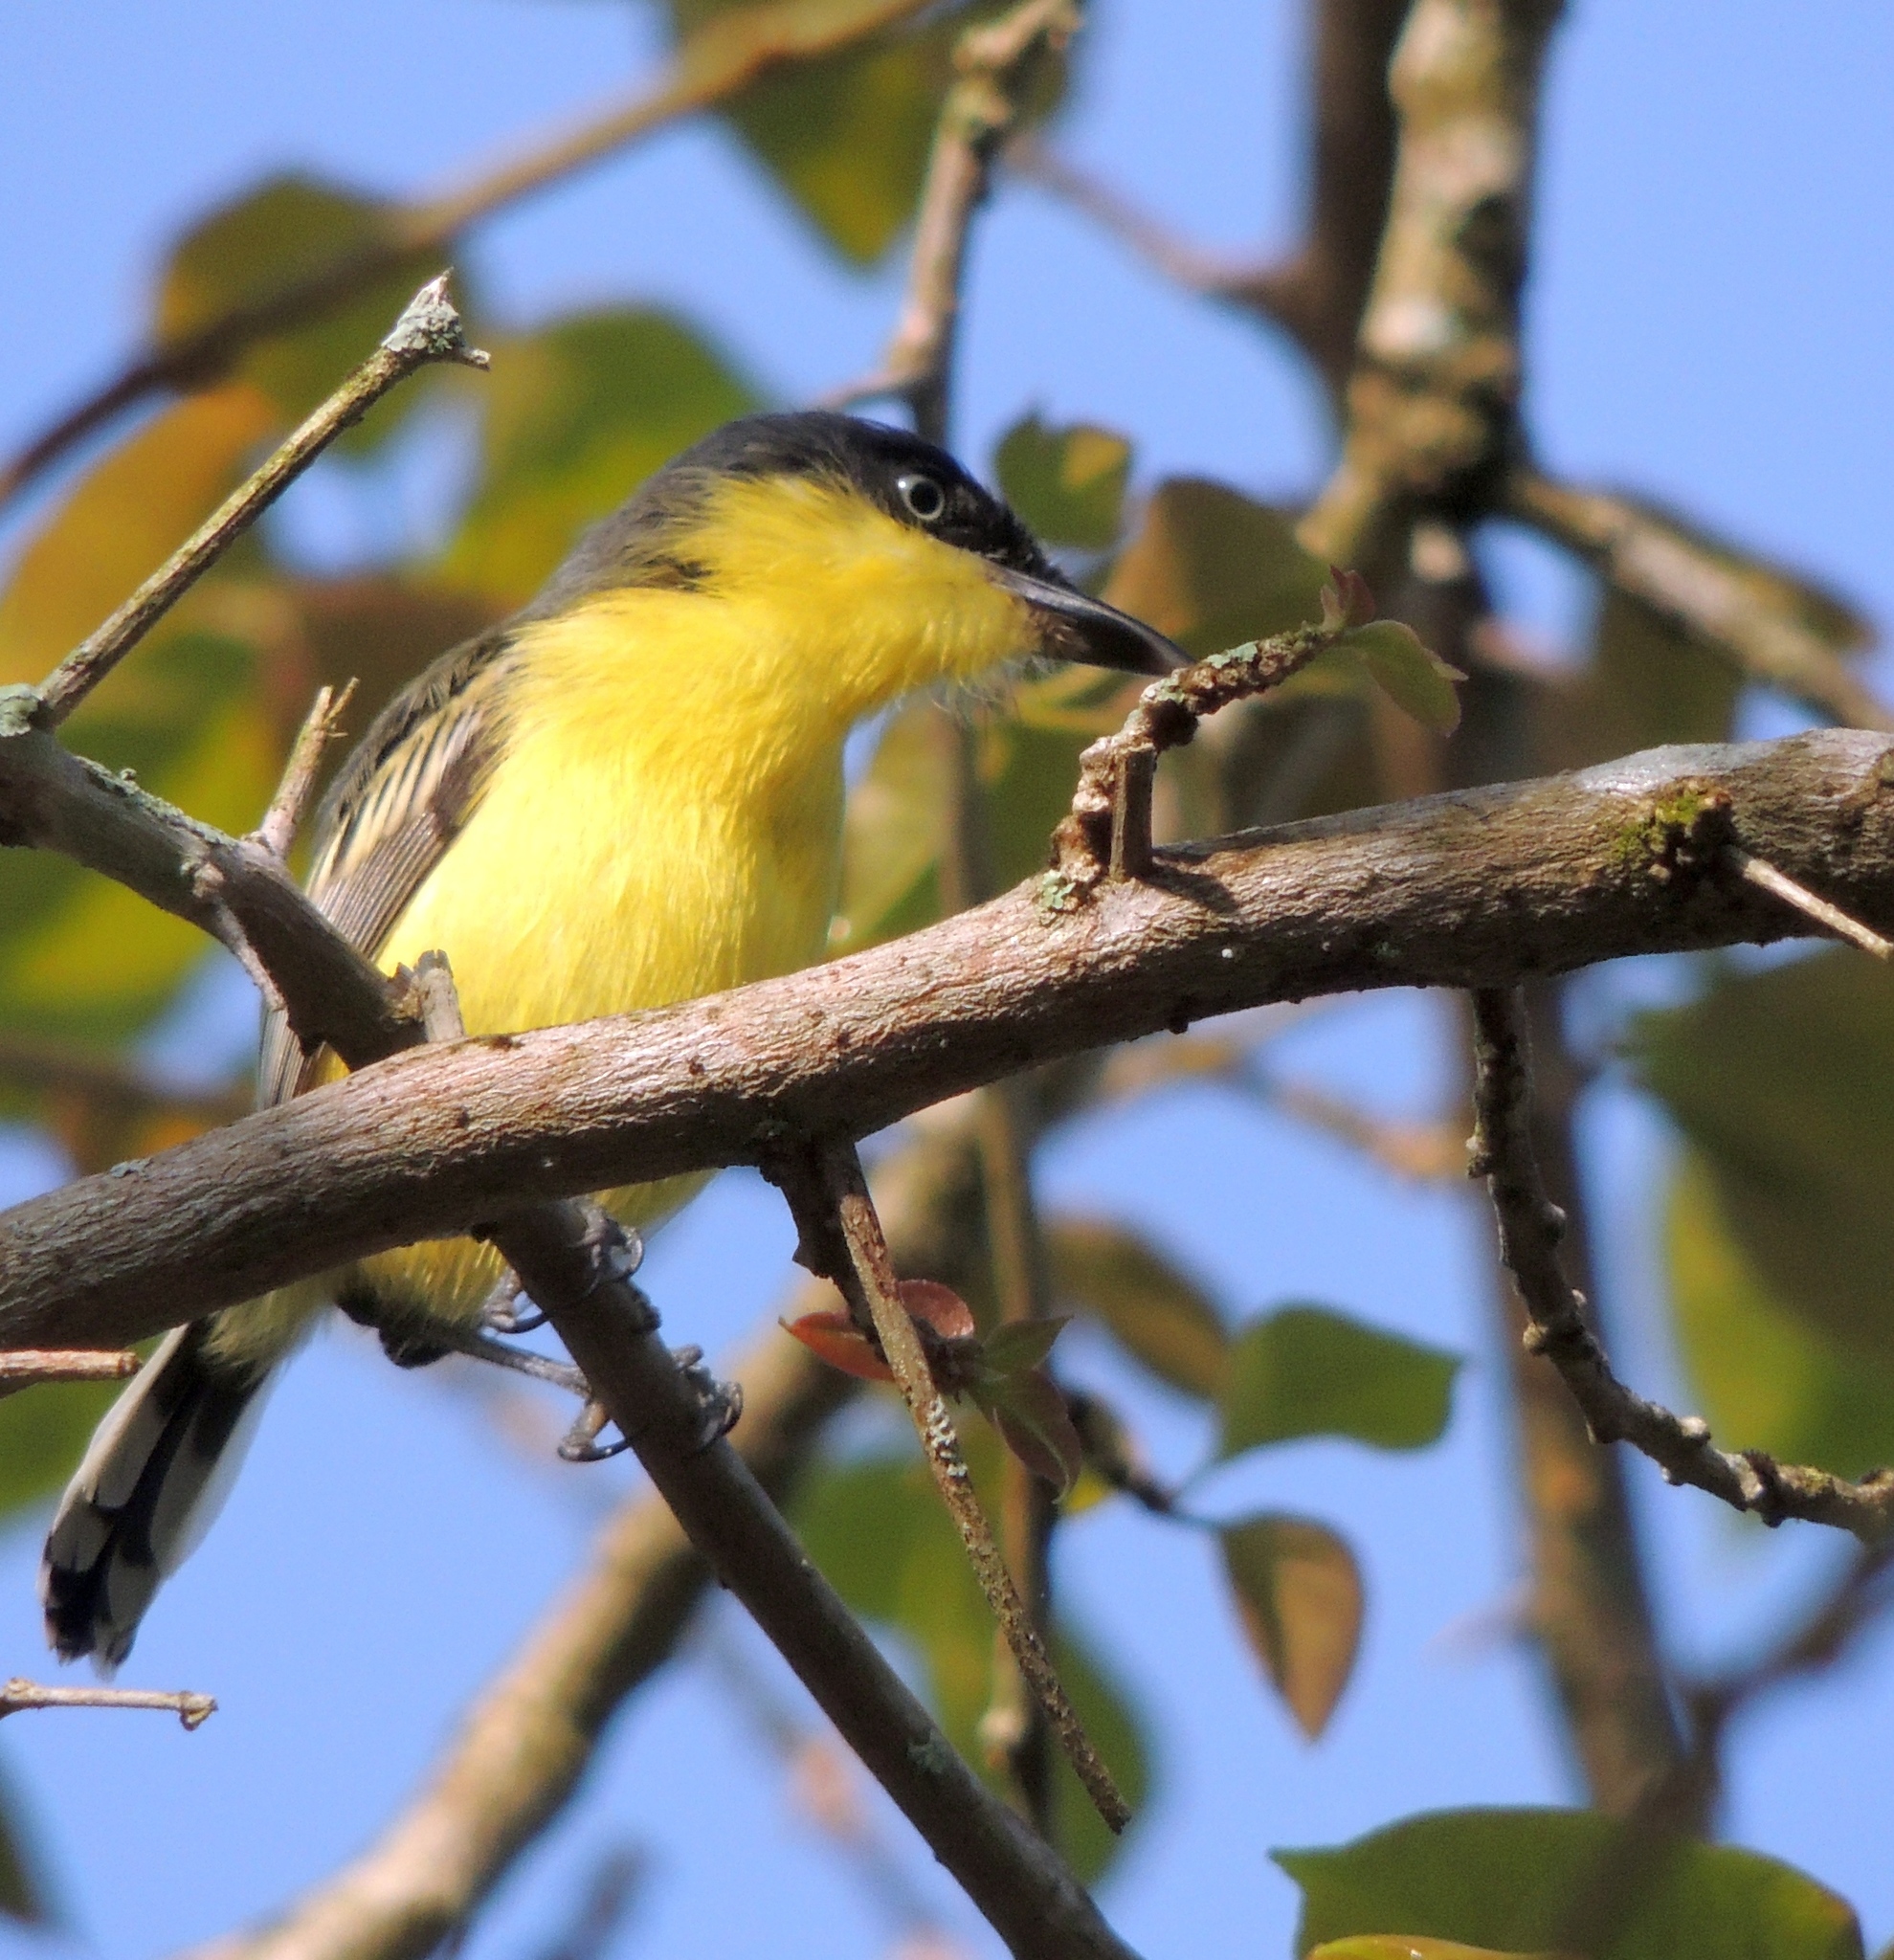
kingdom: Animalia
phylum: Chordata
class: Aves
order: Passeriformes
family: Tyrannidae
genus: Todirostrum
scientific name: Todirostrum cinereum
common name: Common tody-flycatcher
